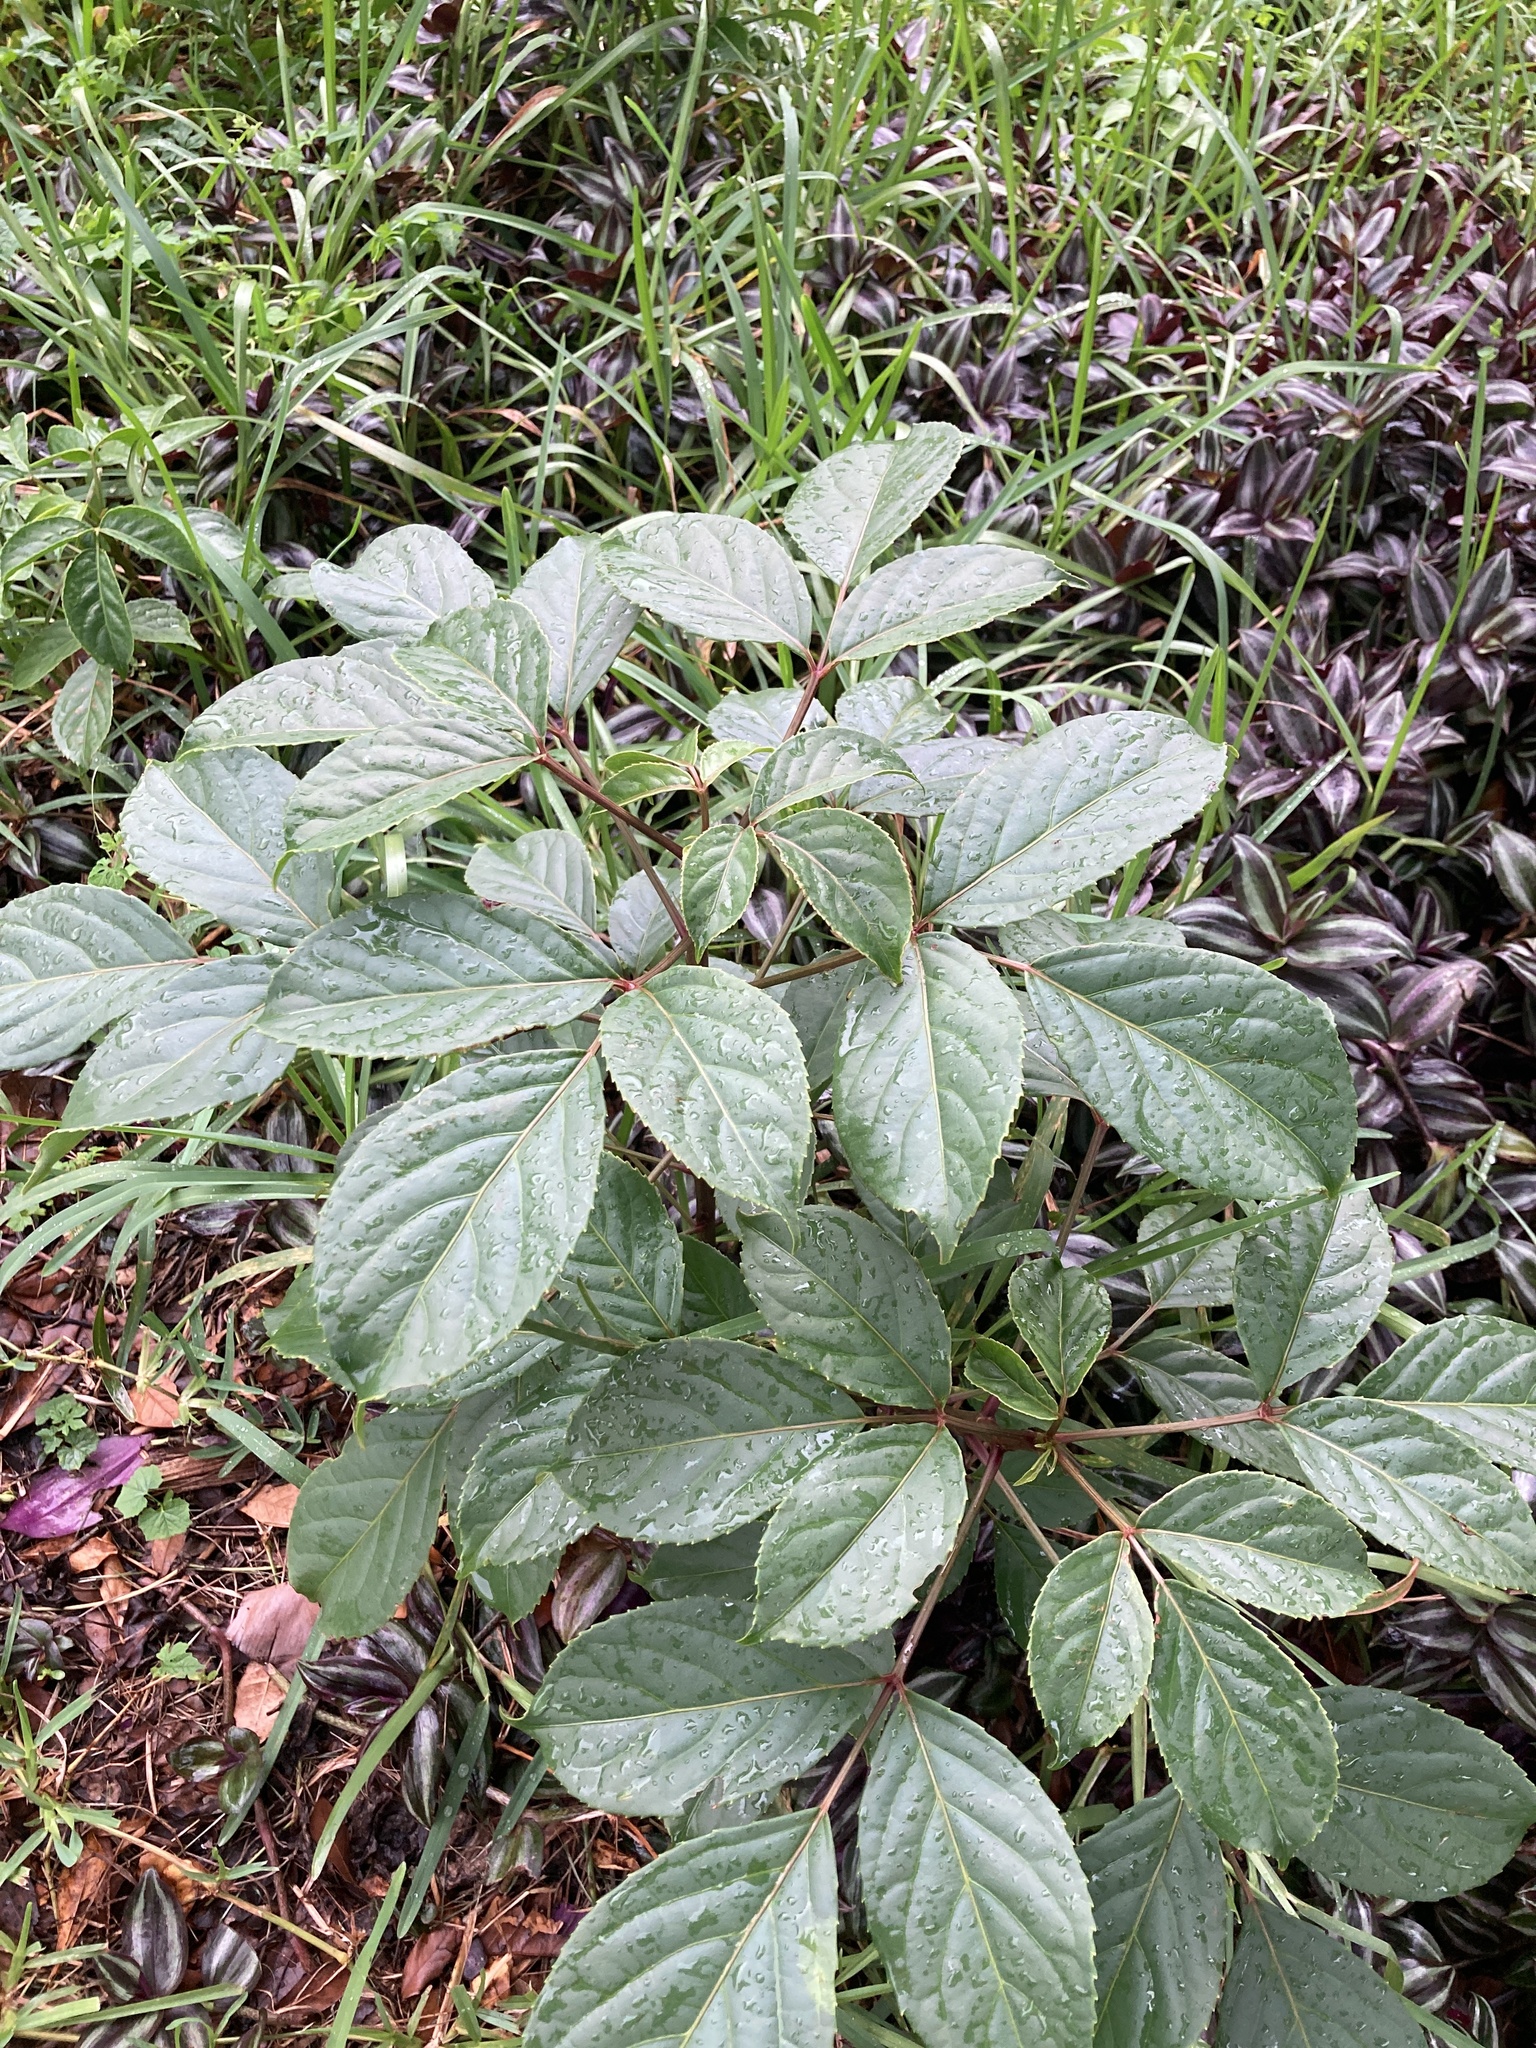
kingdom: Plantae
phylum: Tracheophyta
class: Magnoliopsida
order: Malpighiales
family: Phyllanthaceae
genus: Bischofia
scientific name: Bischofia javanica
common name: Javanese bishopwood
